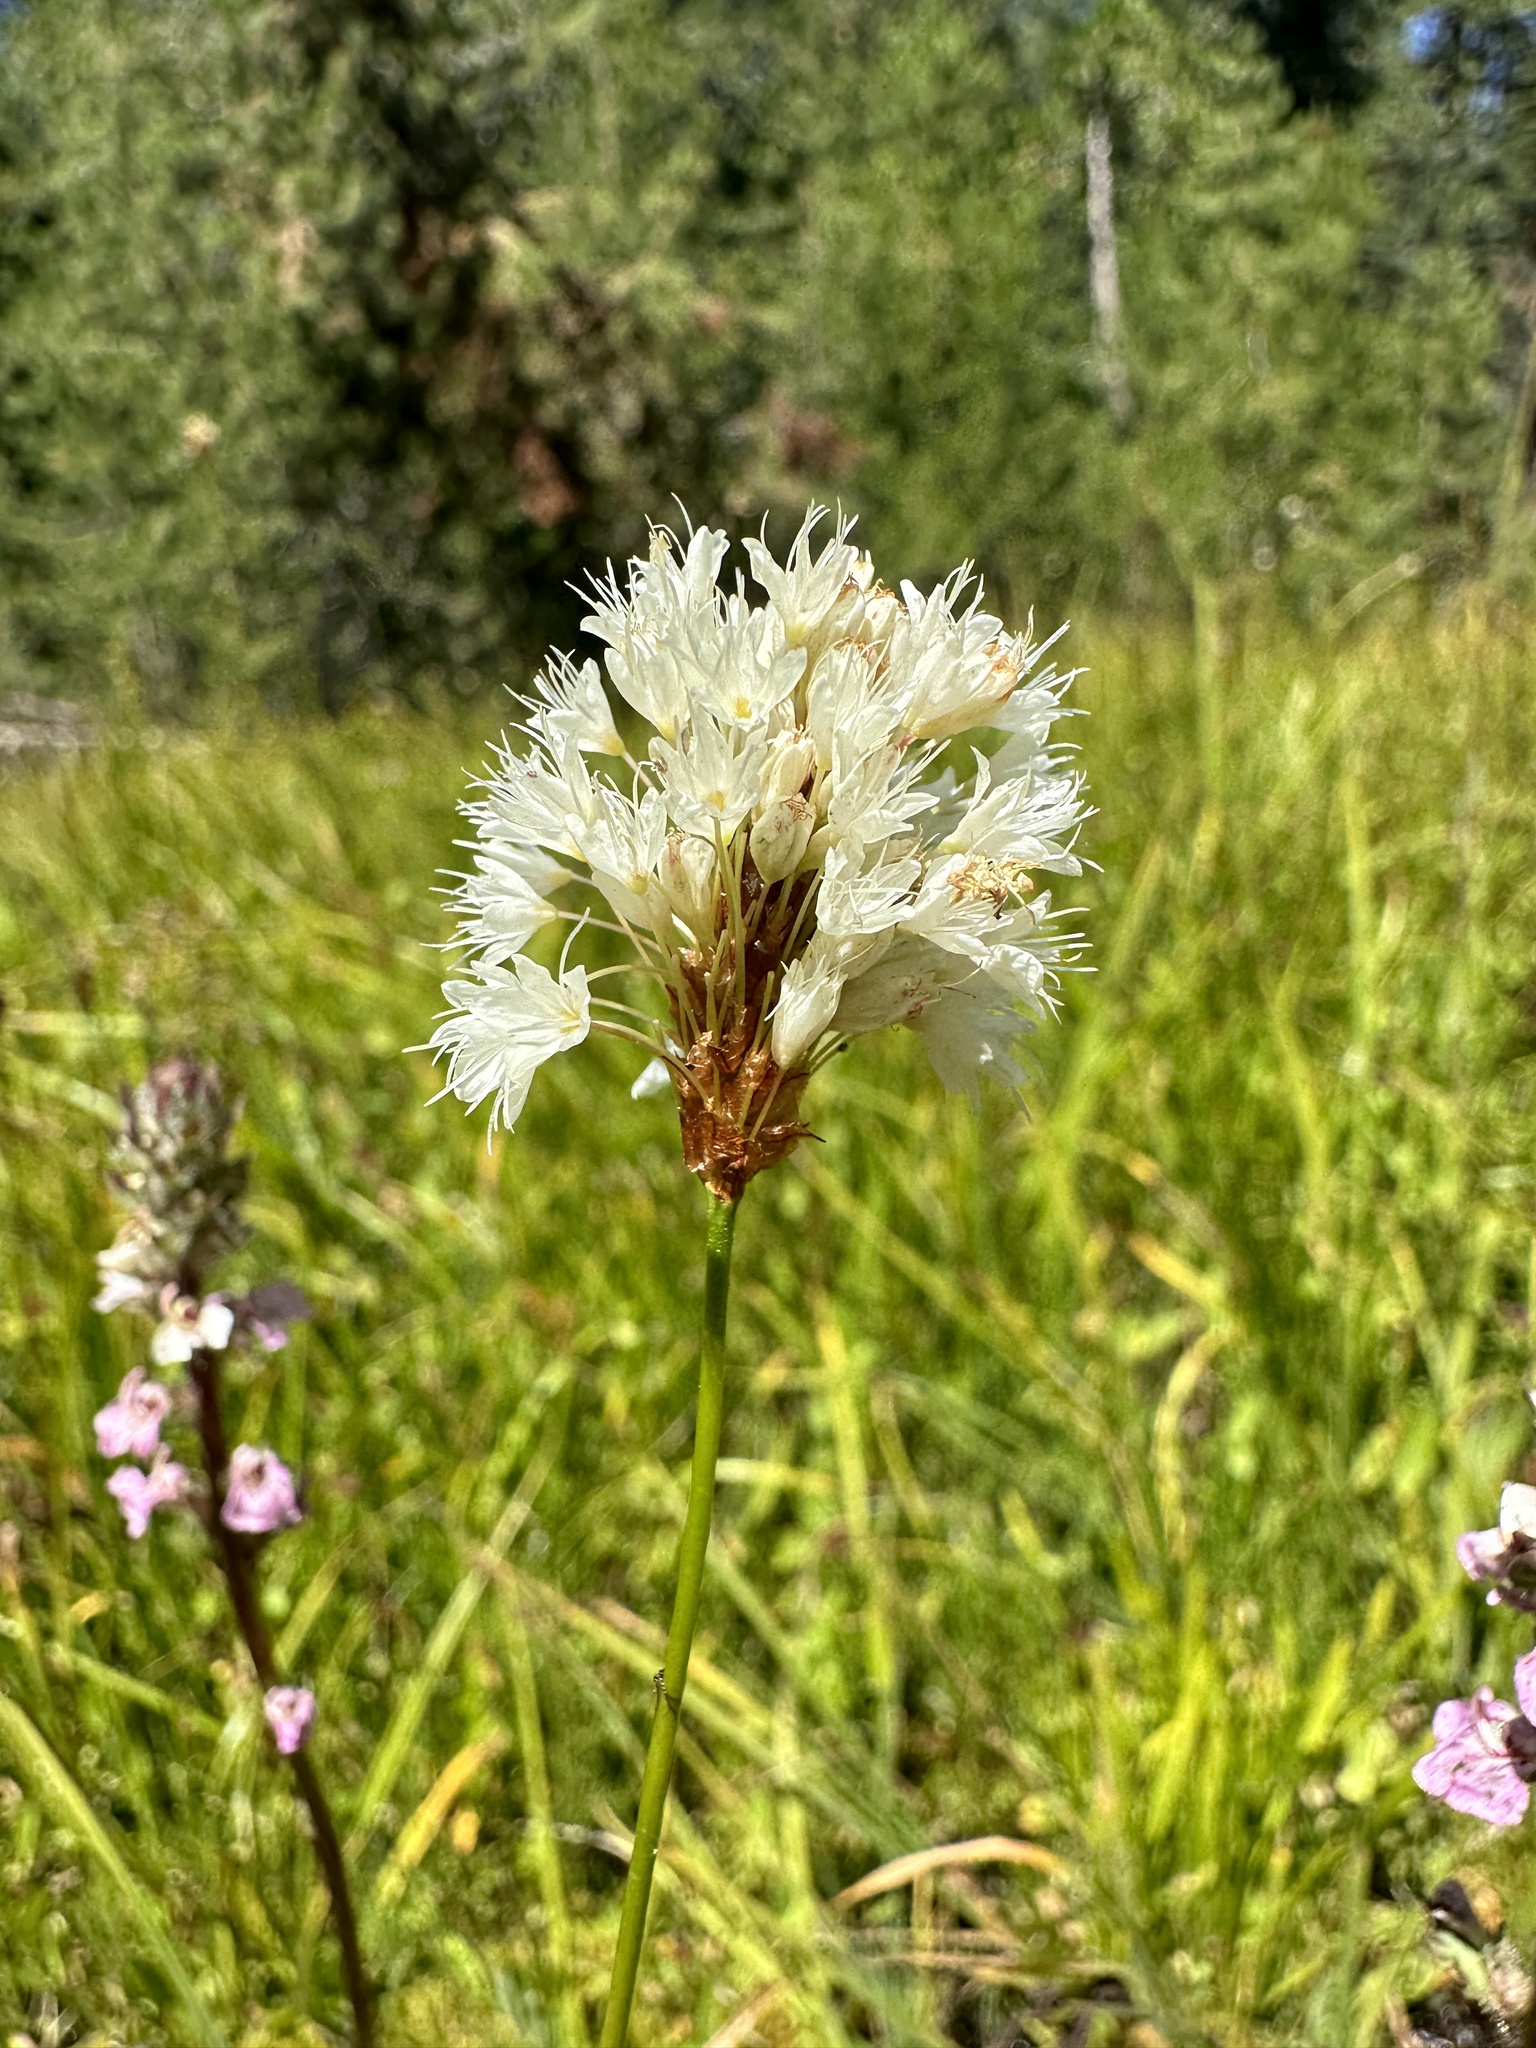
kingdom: Plantae
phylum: Tracheophyta
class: Magnoliopsida
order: Caryophyllales
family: Polygonaceae
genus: Bistorta
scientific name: Bistorta bistortoides
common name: American bistort
